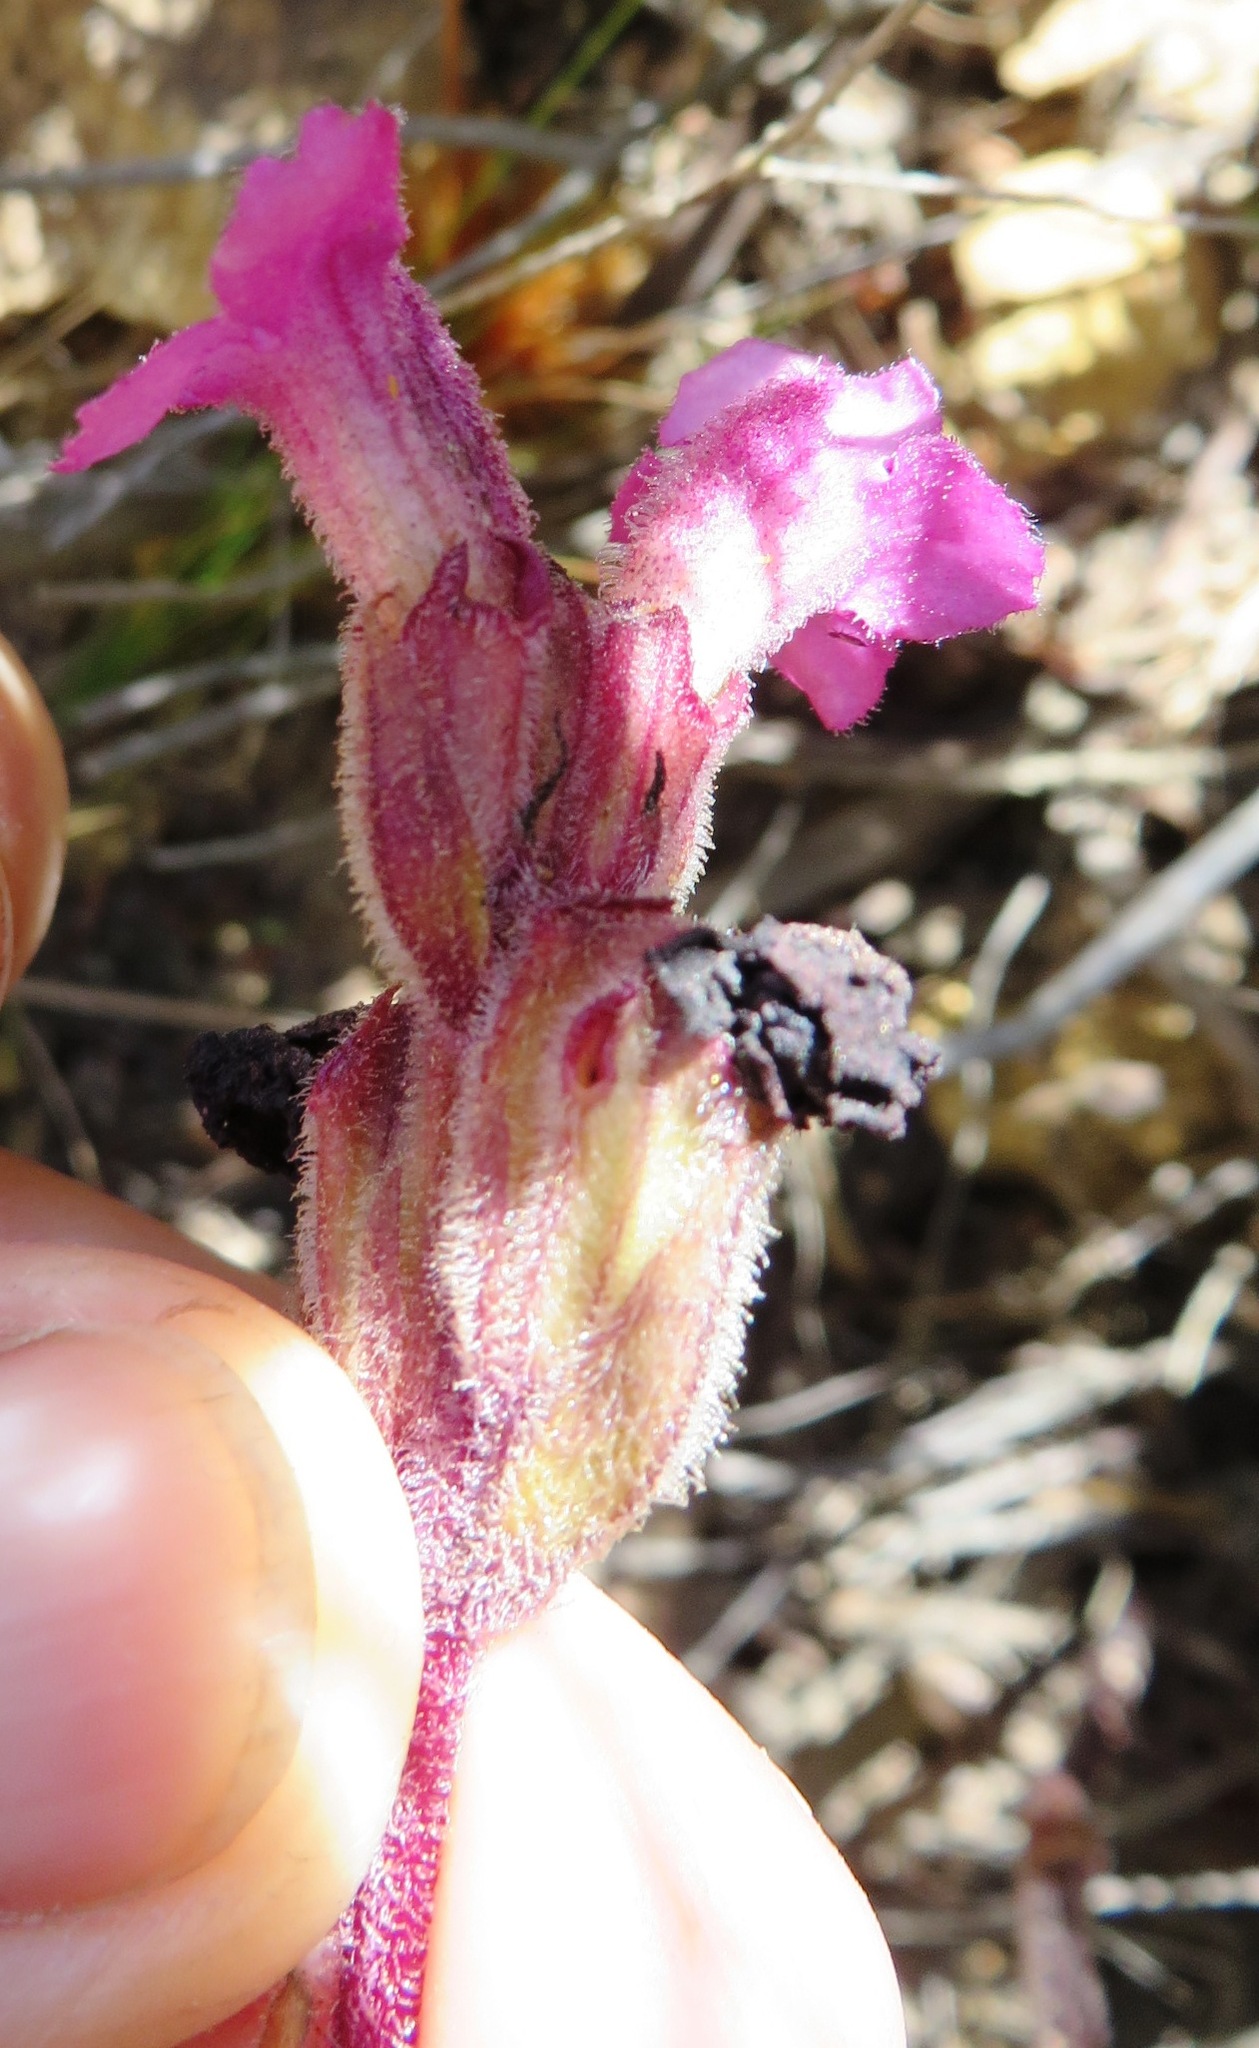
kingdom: Plantae
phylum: Tracheophyta
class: Magnoliopsida
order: Lamiales
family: Orobanchaceae
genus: Harveya
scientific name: Harveya pauciflora
